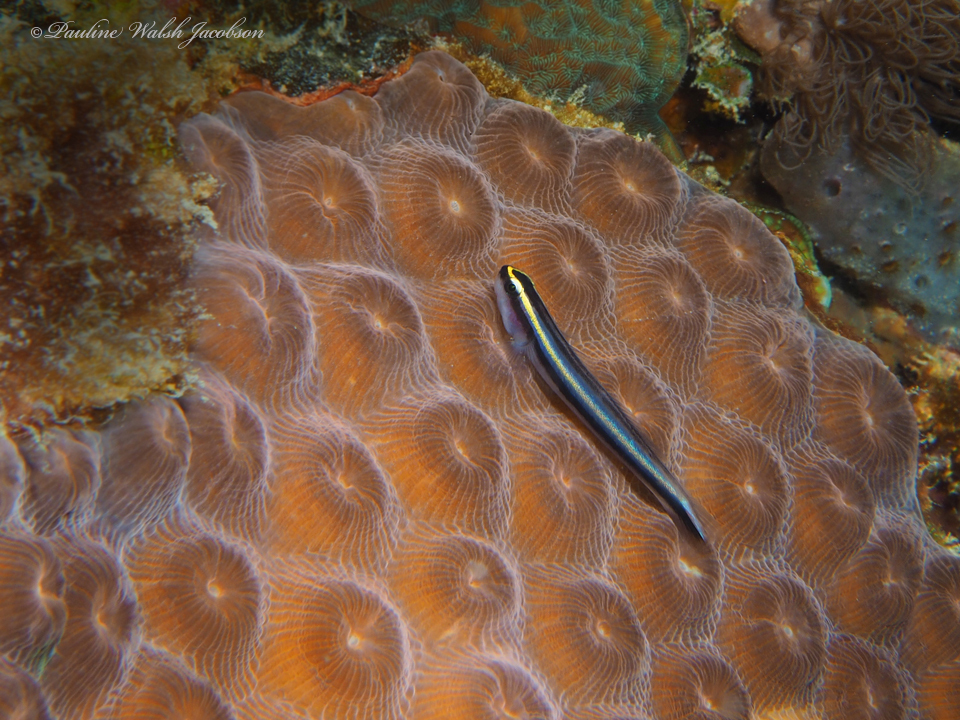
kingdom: Animalia
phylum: Chordata
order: Perciformes
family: Gobiidae
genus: Elacatinus
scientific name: Elacatinus evelynae
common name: Sharknose goby
